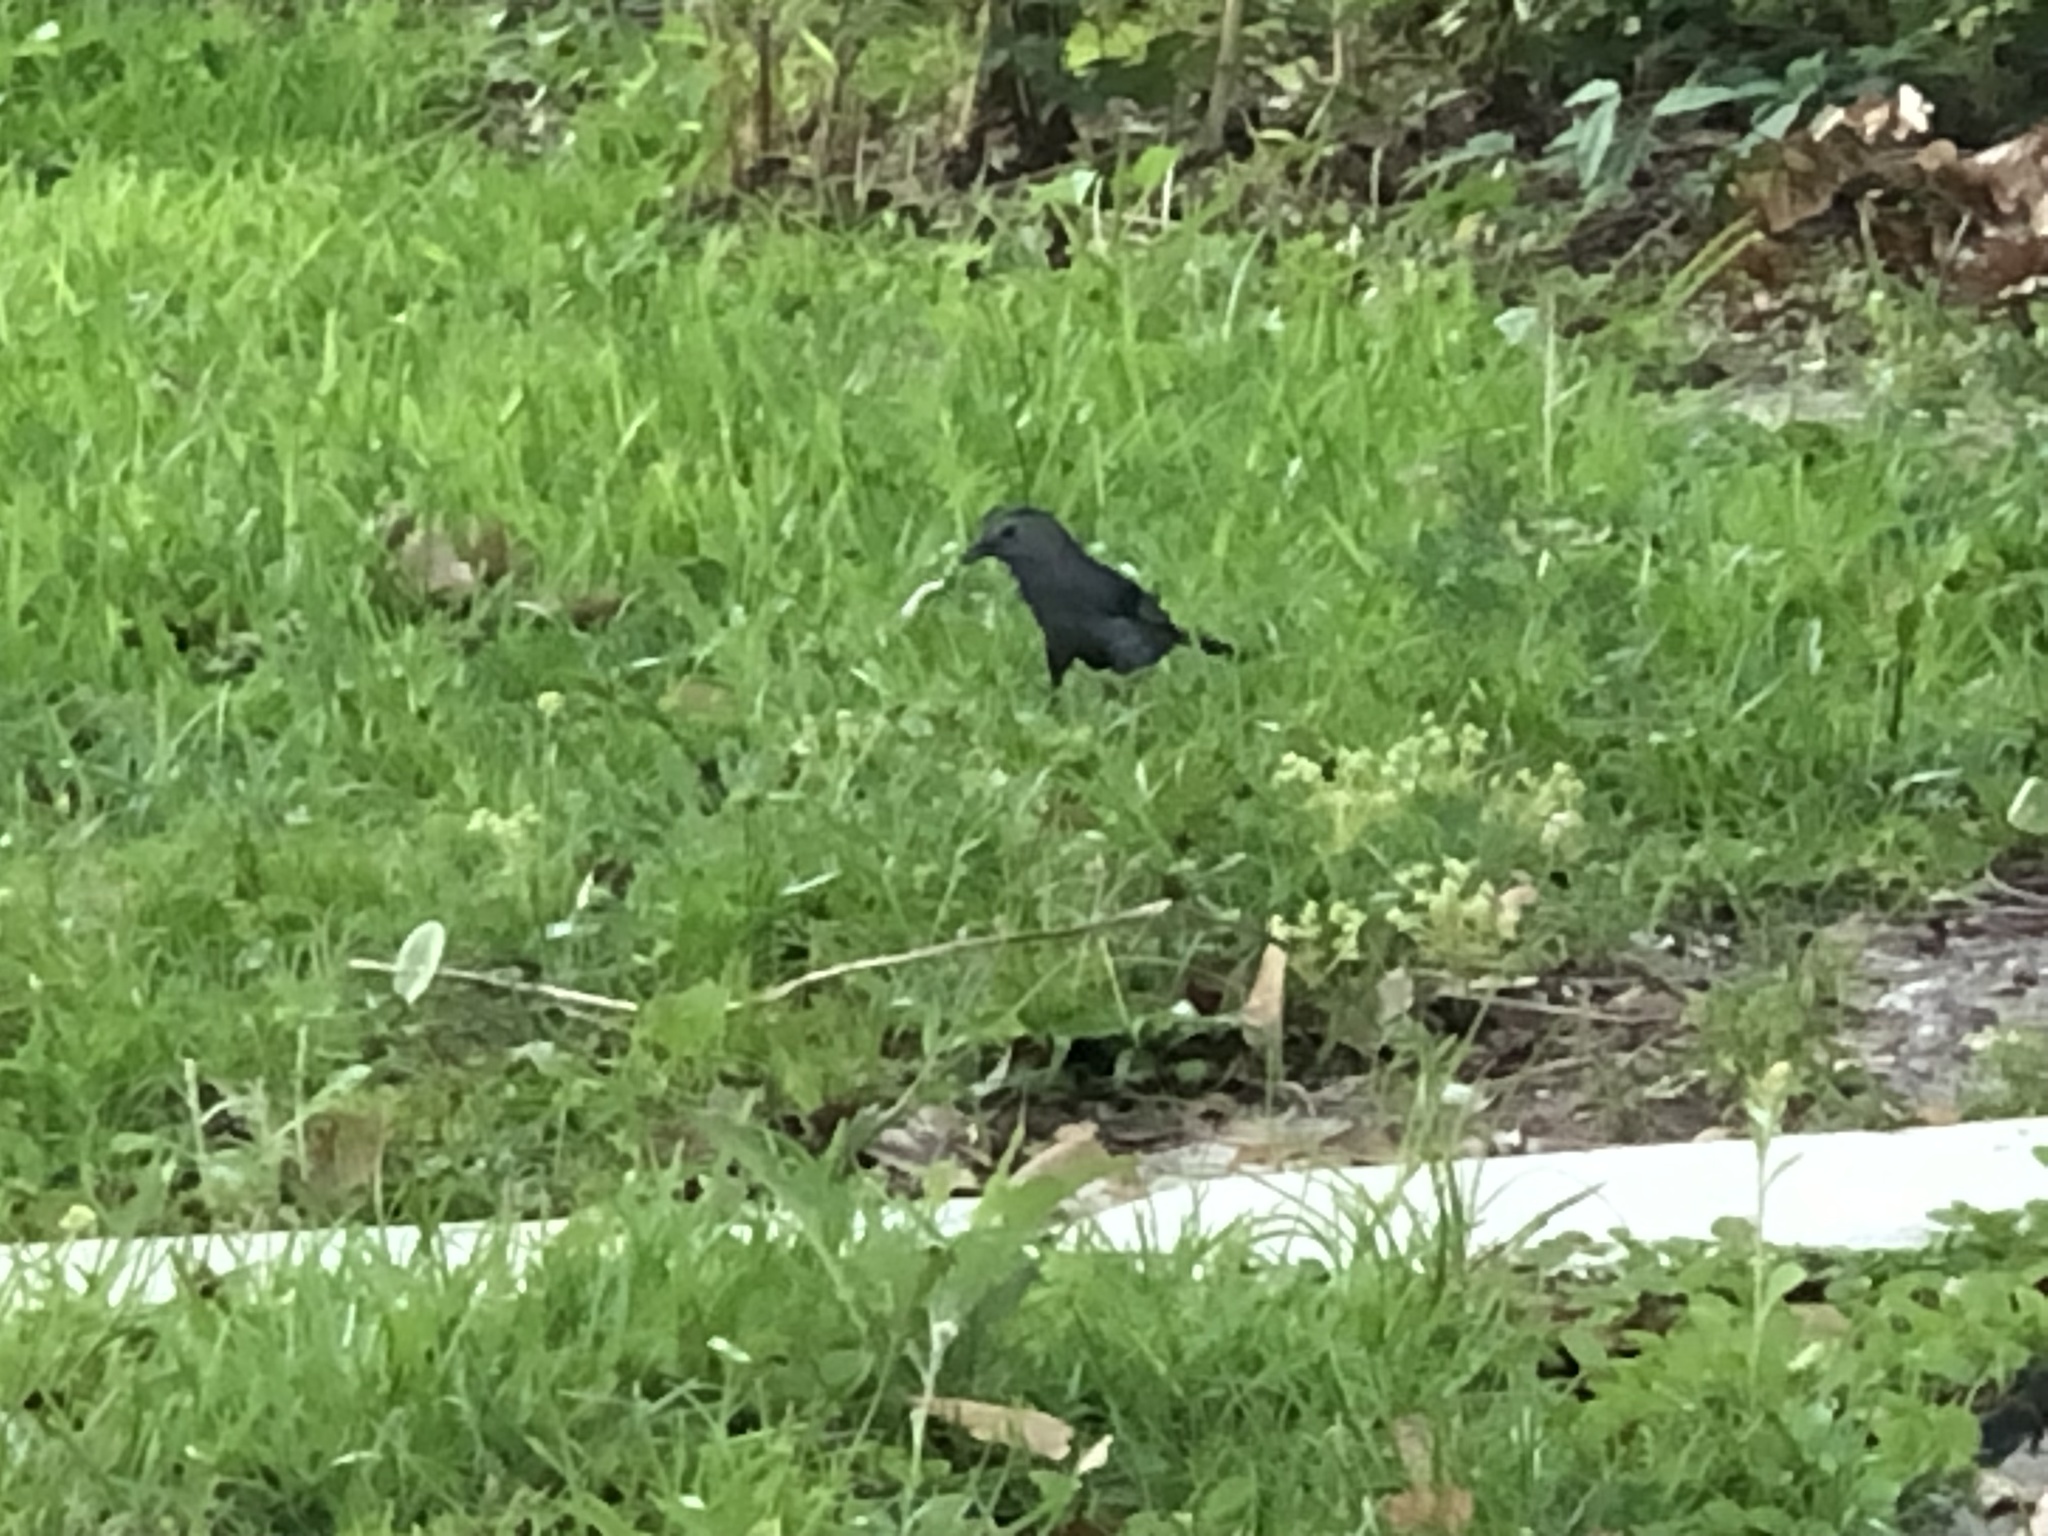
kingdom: Animalia
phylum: Chordata
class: Aves
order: Passeriformes
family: Mimidae
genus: Dumetella
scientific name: Dumetella carolinensis
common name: Gray catbird
